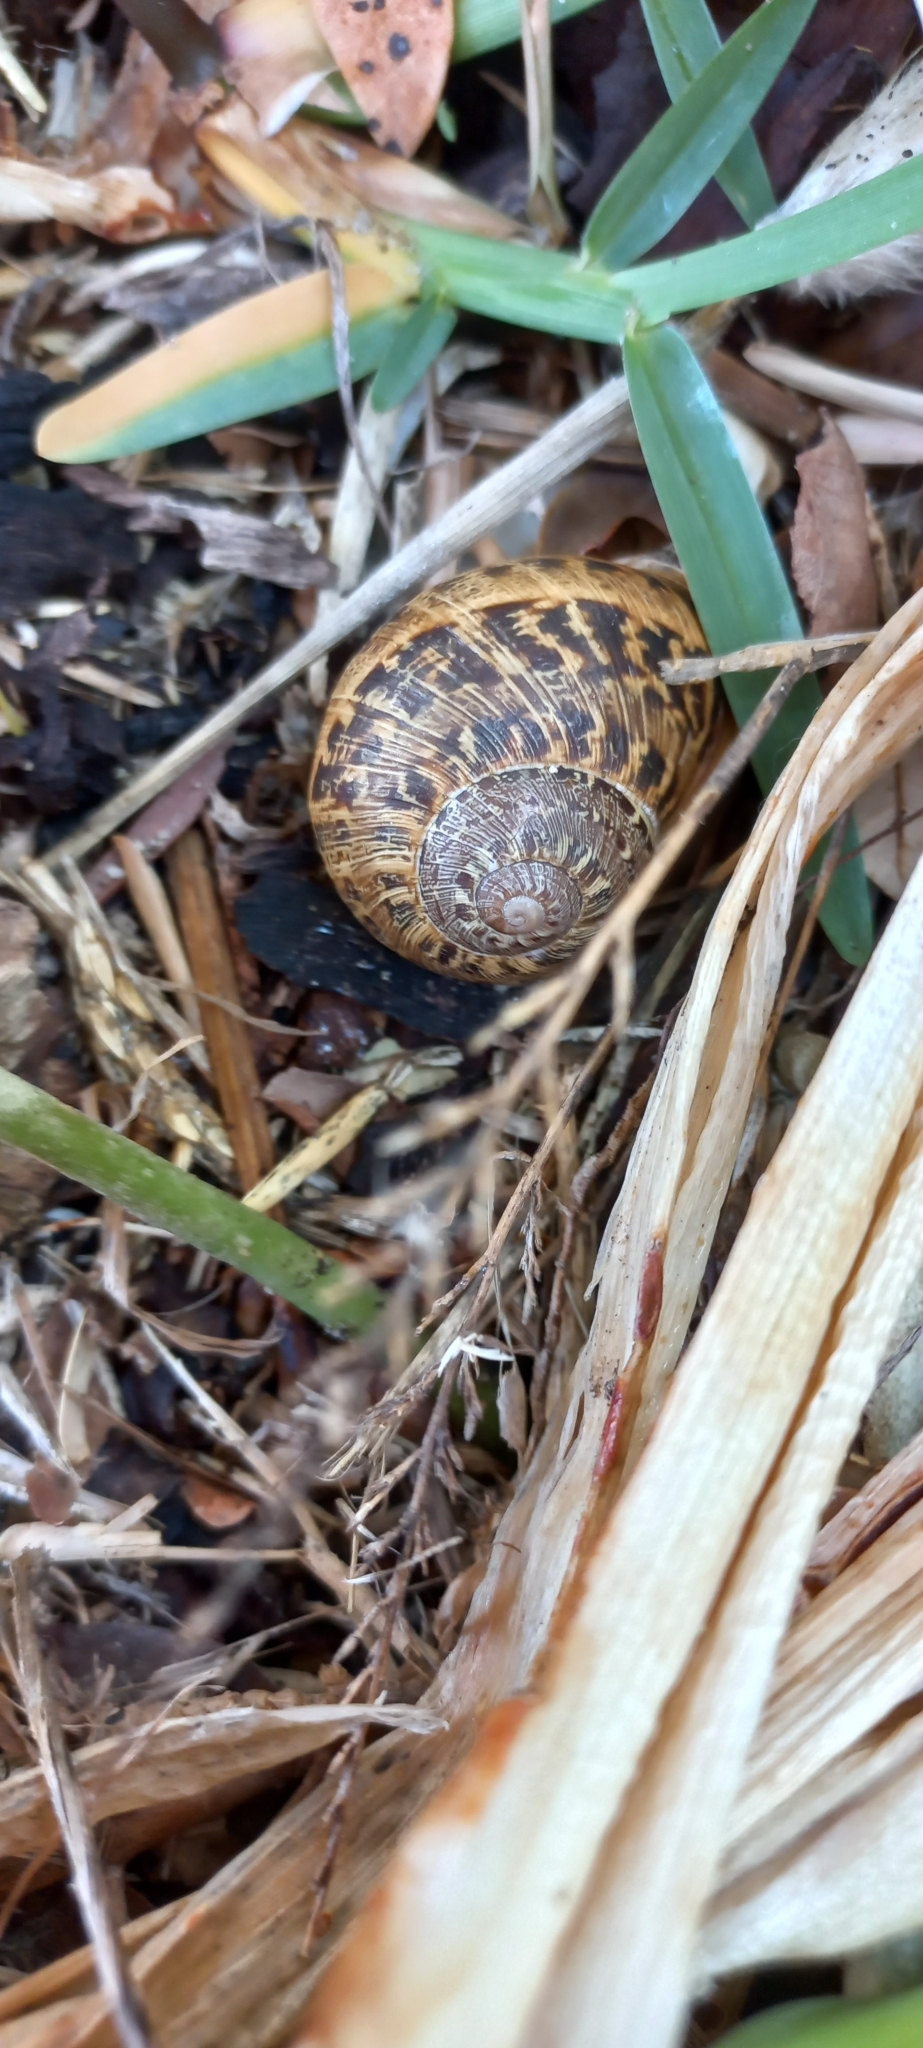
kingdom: Animalia
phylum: Mollusca
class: Gastropoda
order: Stylommatophora
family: Helicidae
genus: Cornu
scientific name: Cornu aspersum
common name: Brown garden snail
